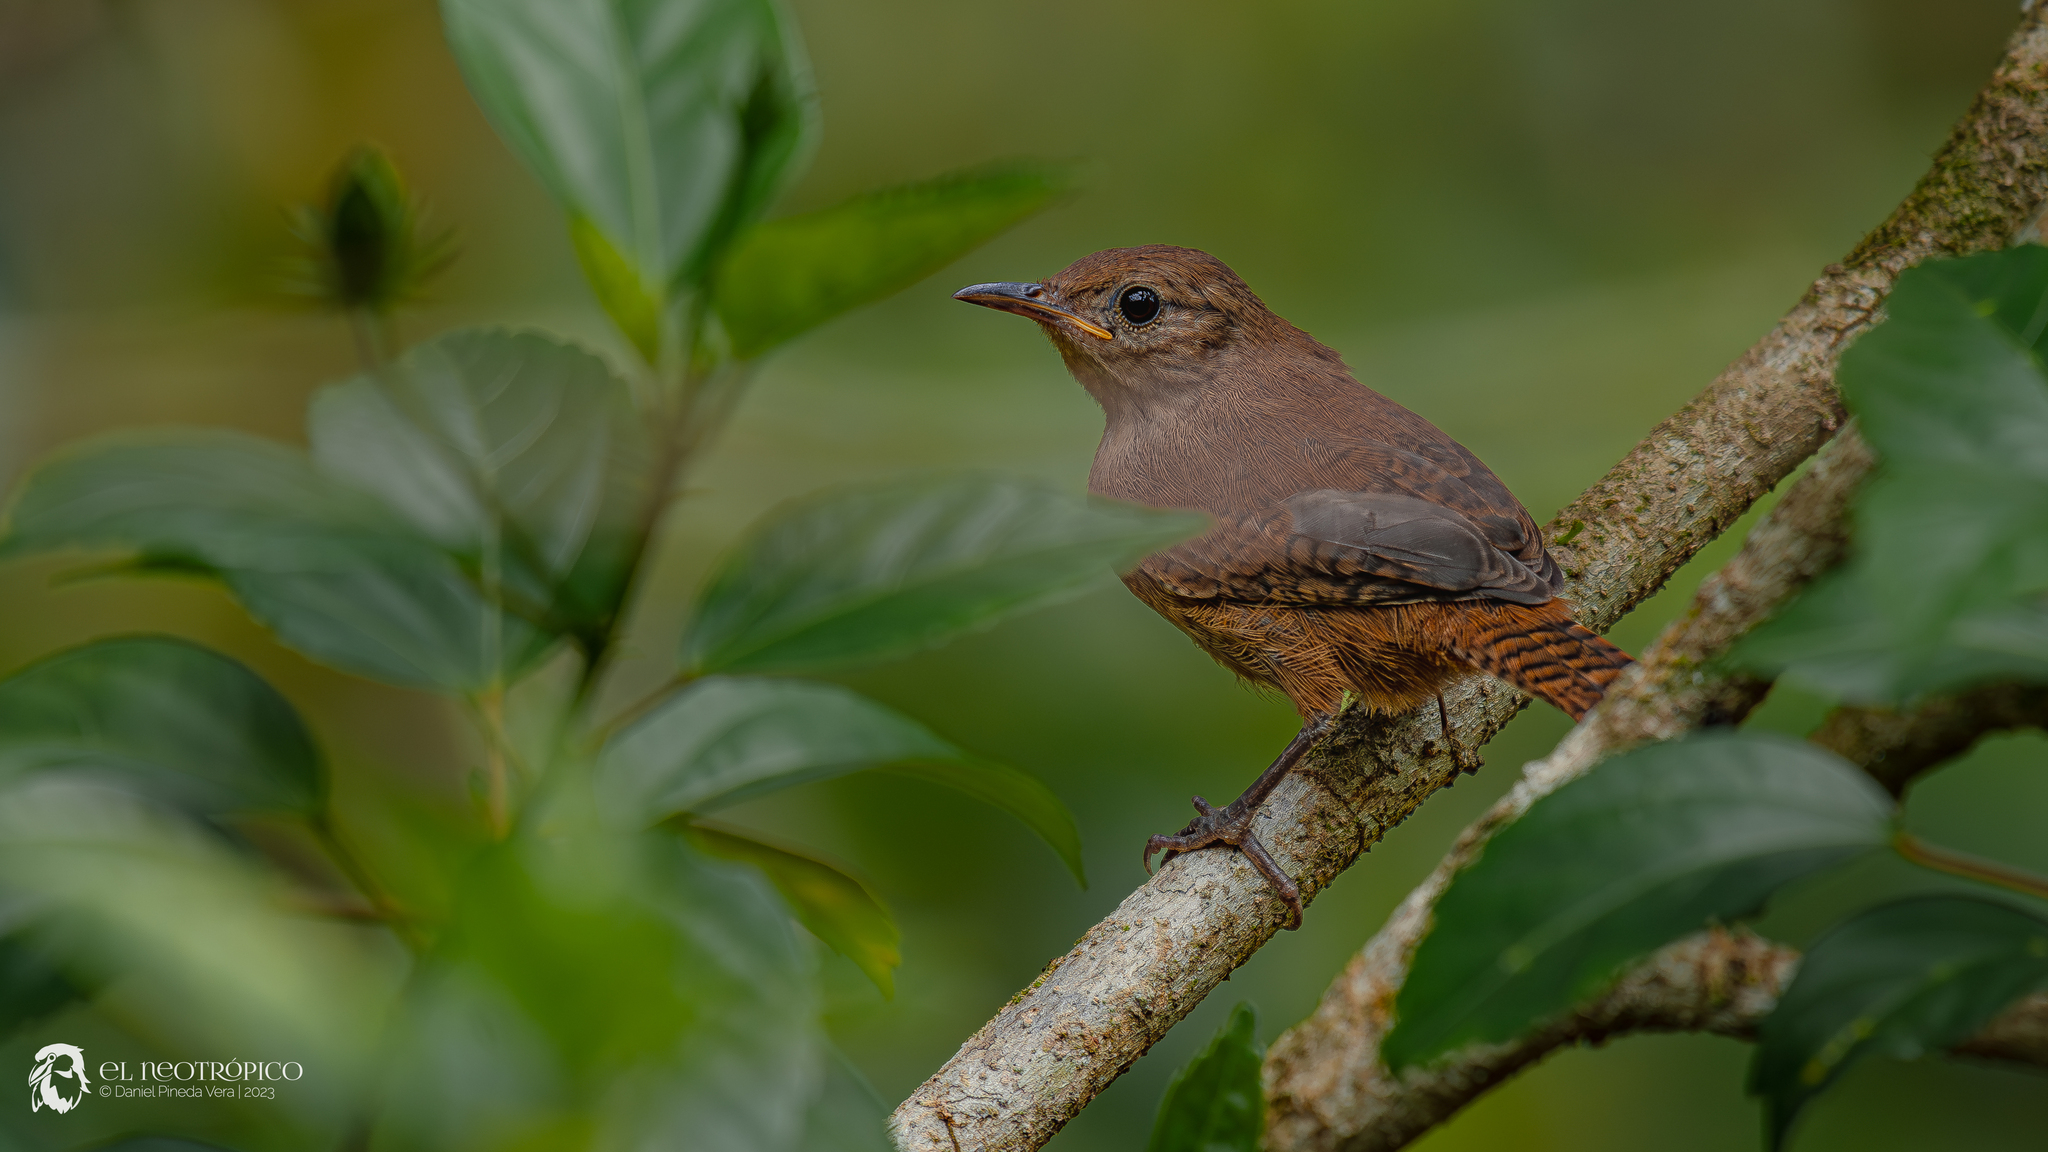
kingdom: Animalia
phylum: Chordata
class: Aves
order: Passeriformes
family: Troglodytidae
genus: Troglodytes
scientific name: Troglodytes aedon
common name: House wren
